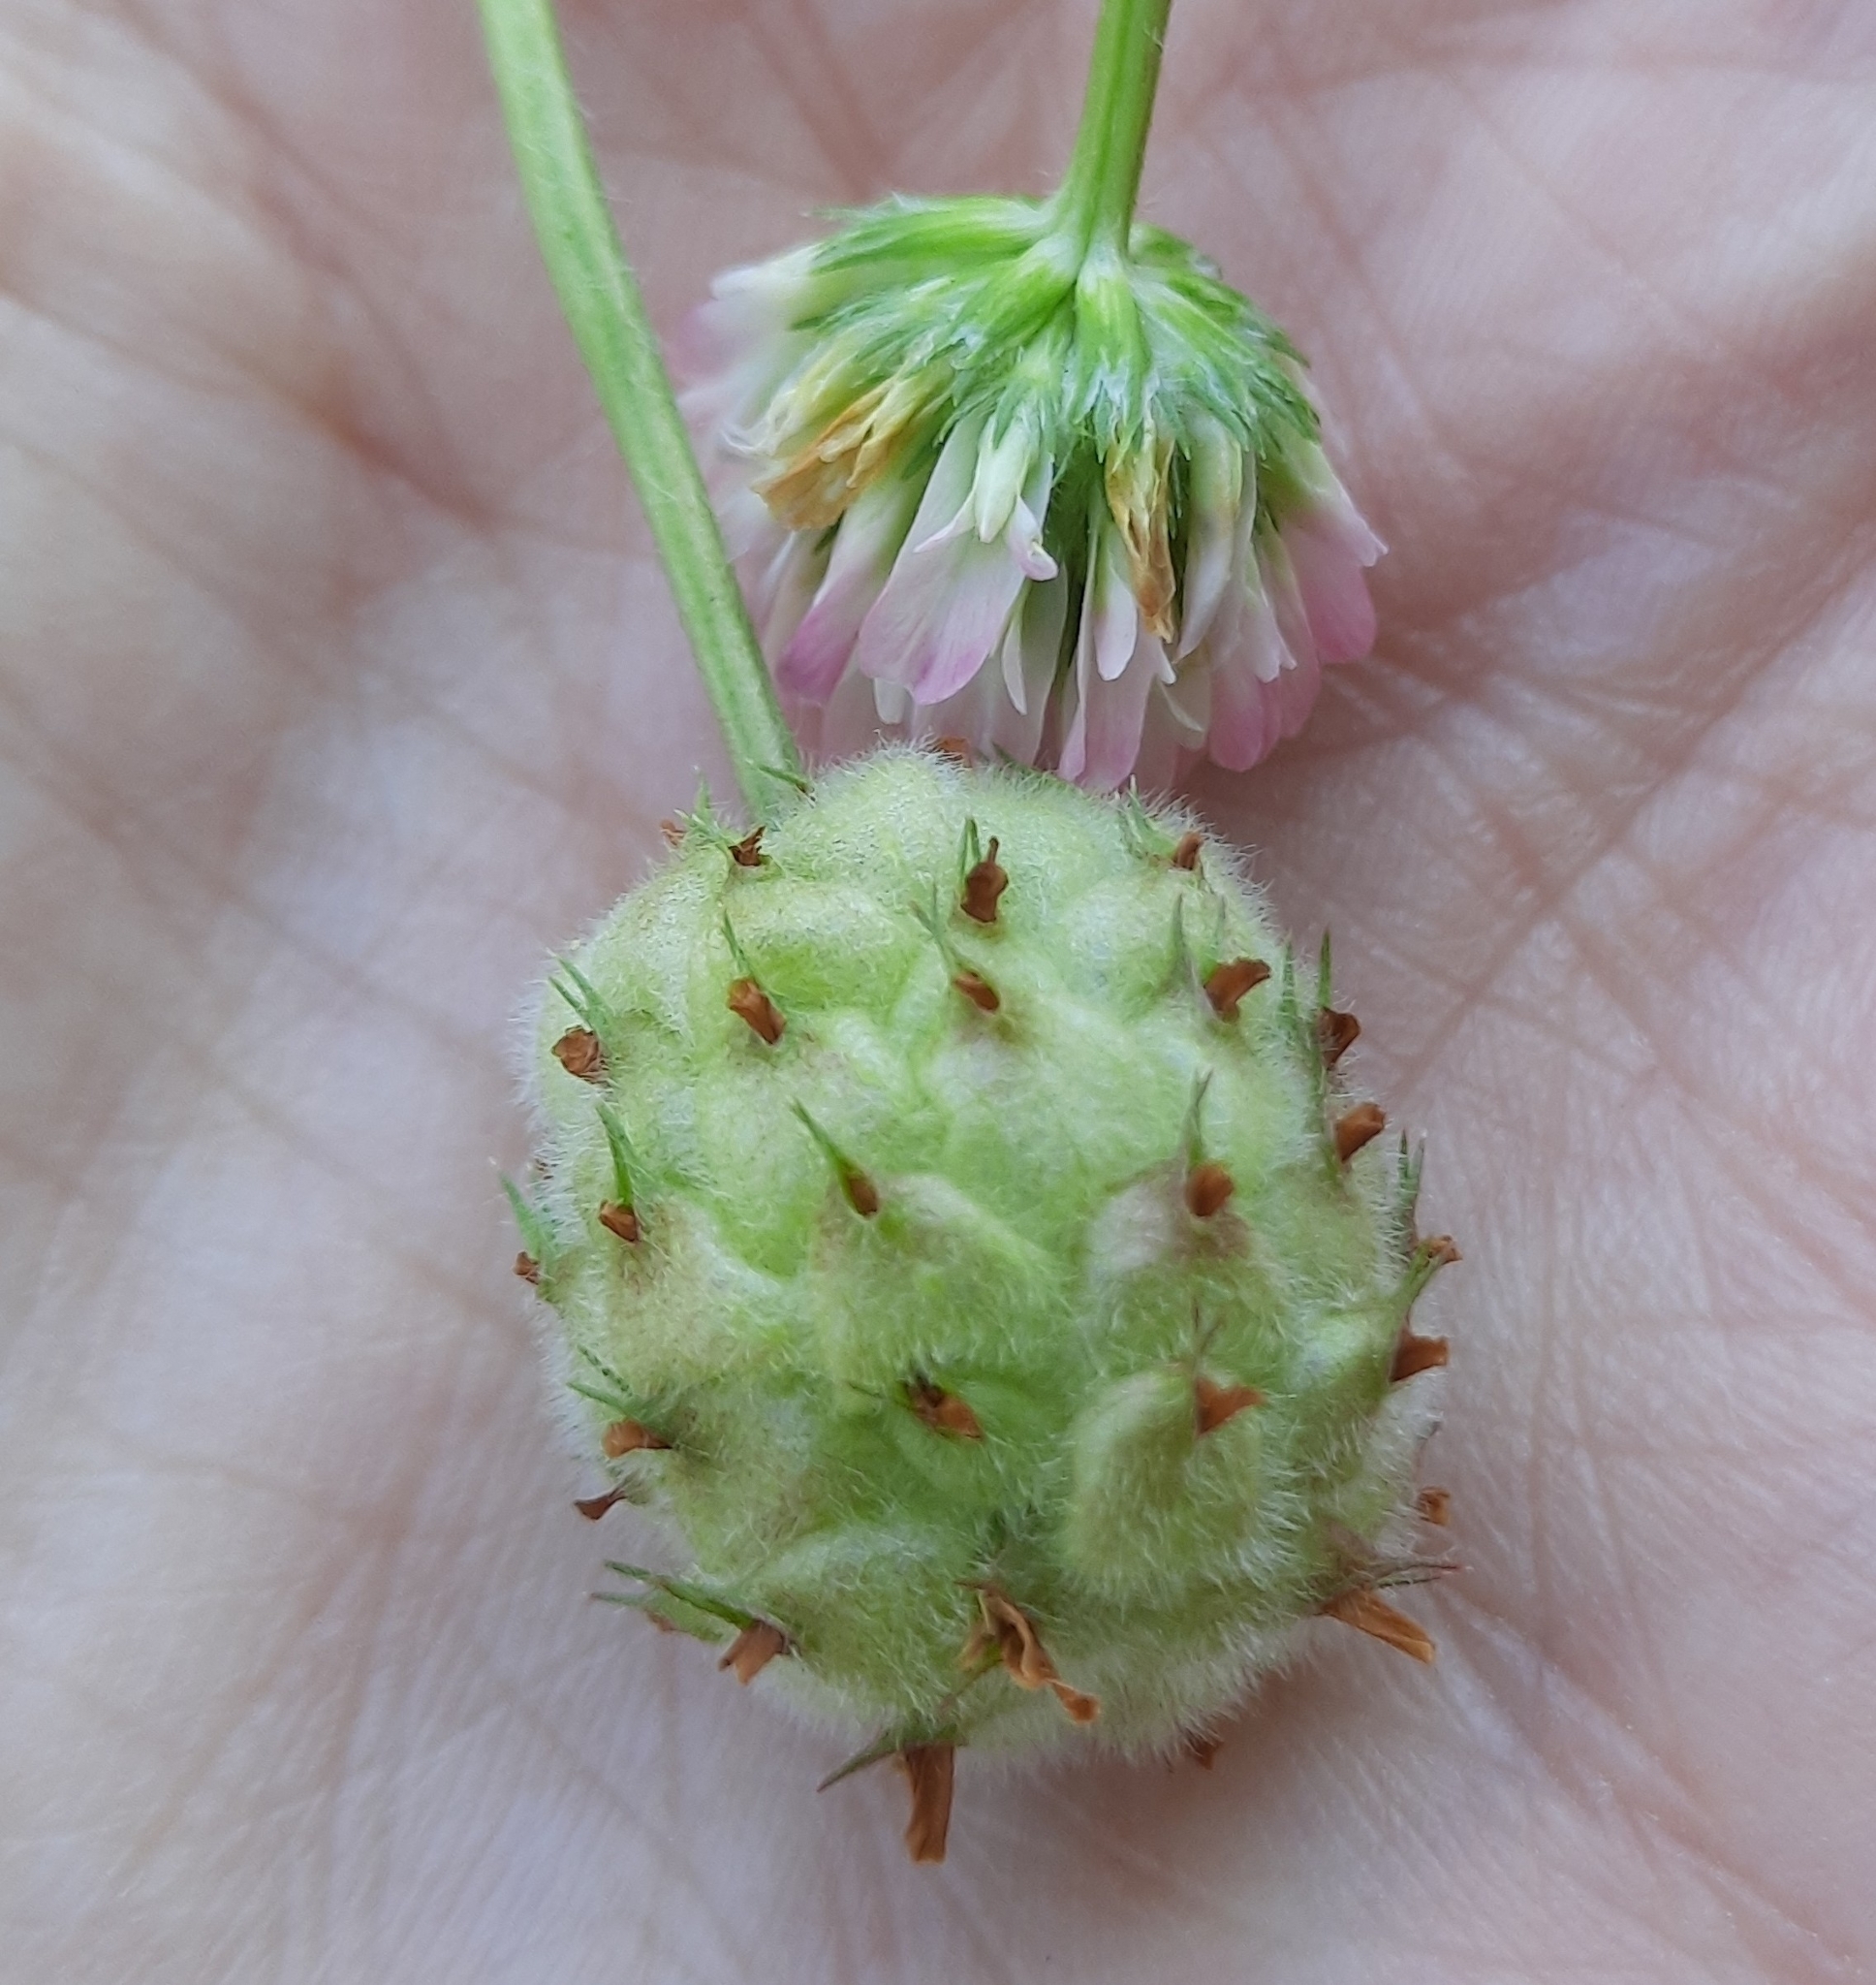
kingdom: Plantae
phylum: Tracheophyta
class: Magnoliopsida
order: Fabales
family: Fabaceae
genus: Trifolium
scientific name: Trifolium fragiferum
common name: Strawberry clover
